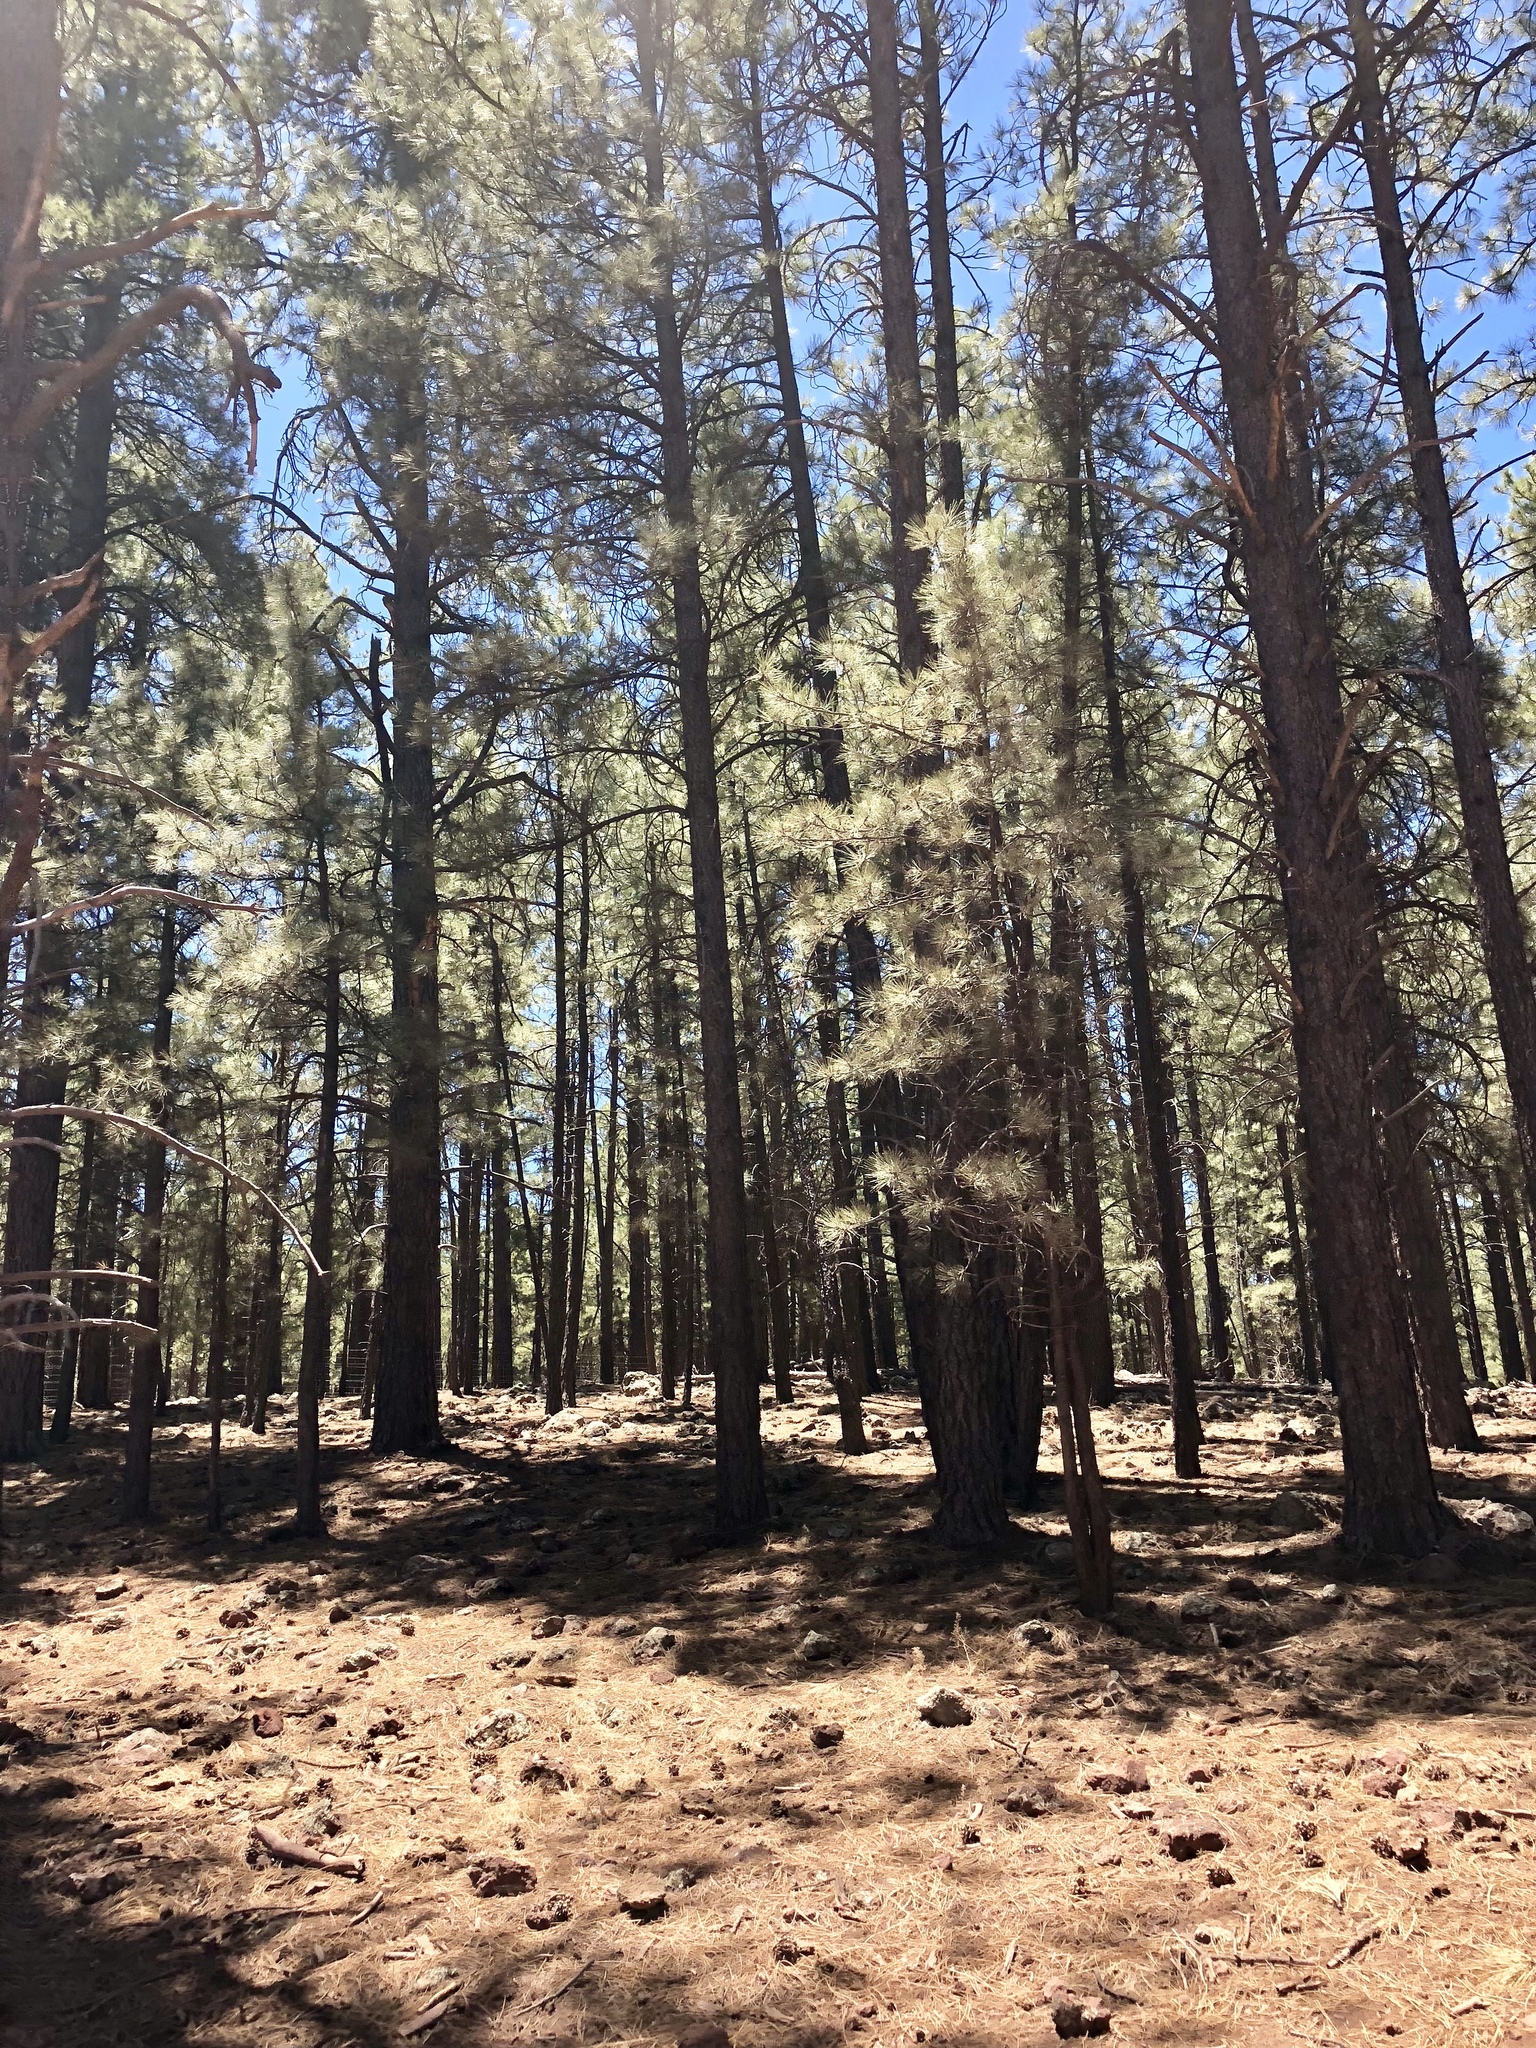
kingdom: Plantae
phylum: Tracheophyta
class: Pinopsida
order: Pinales
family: Pinaceae
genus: Pinus
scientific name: Pinus ponderosa
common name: Western yellow-pine
